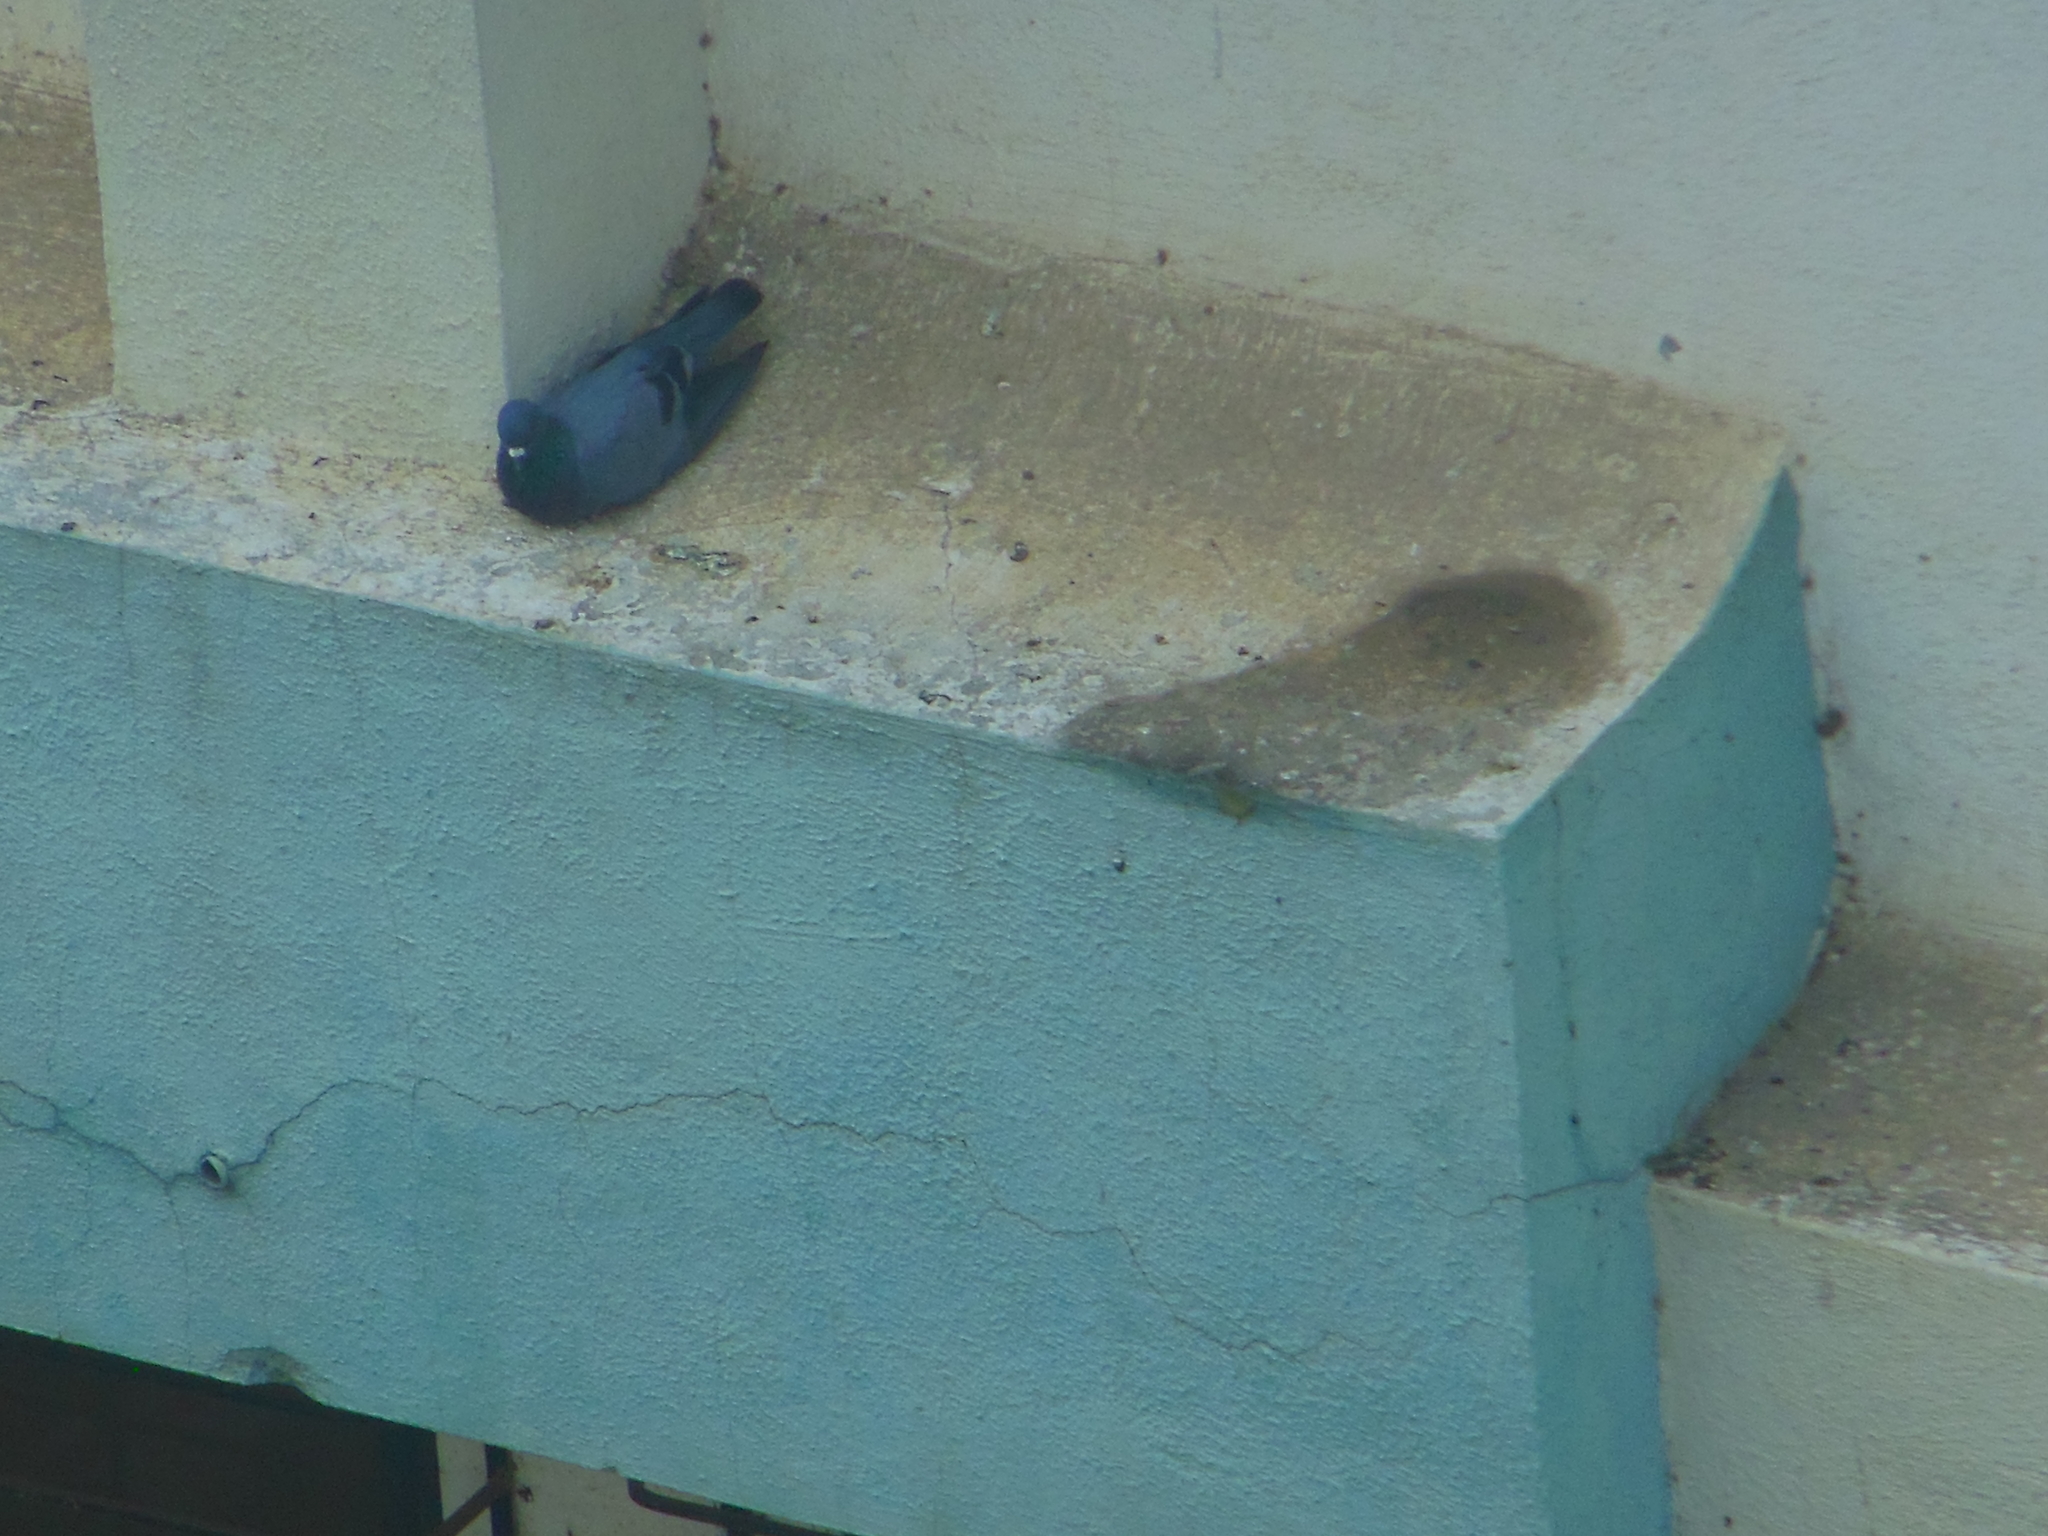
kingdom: Animalia
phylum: Chordata
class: Aves
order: Columbiformes
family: Columbidae
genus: Columba
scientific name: Columba livia
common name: Rock pigeon
